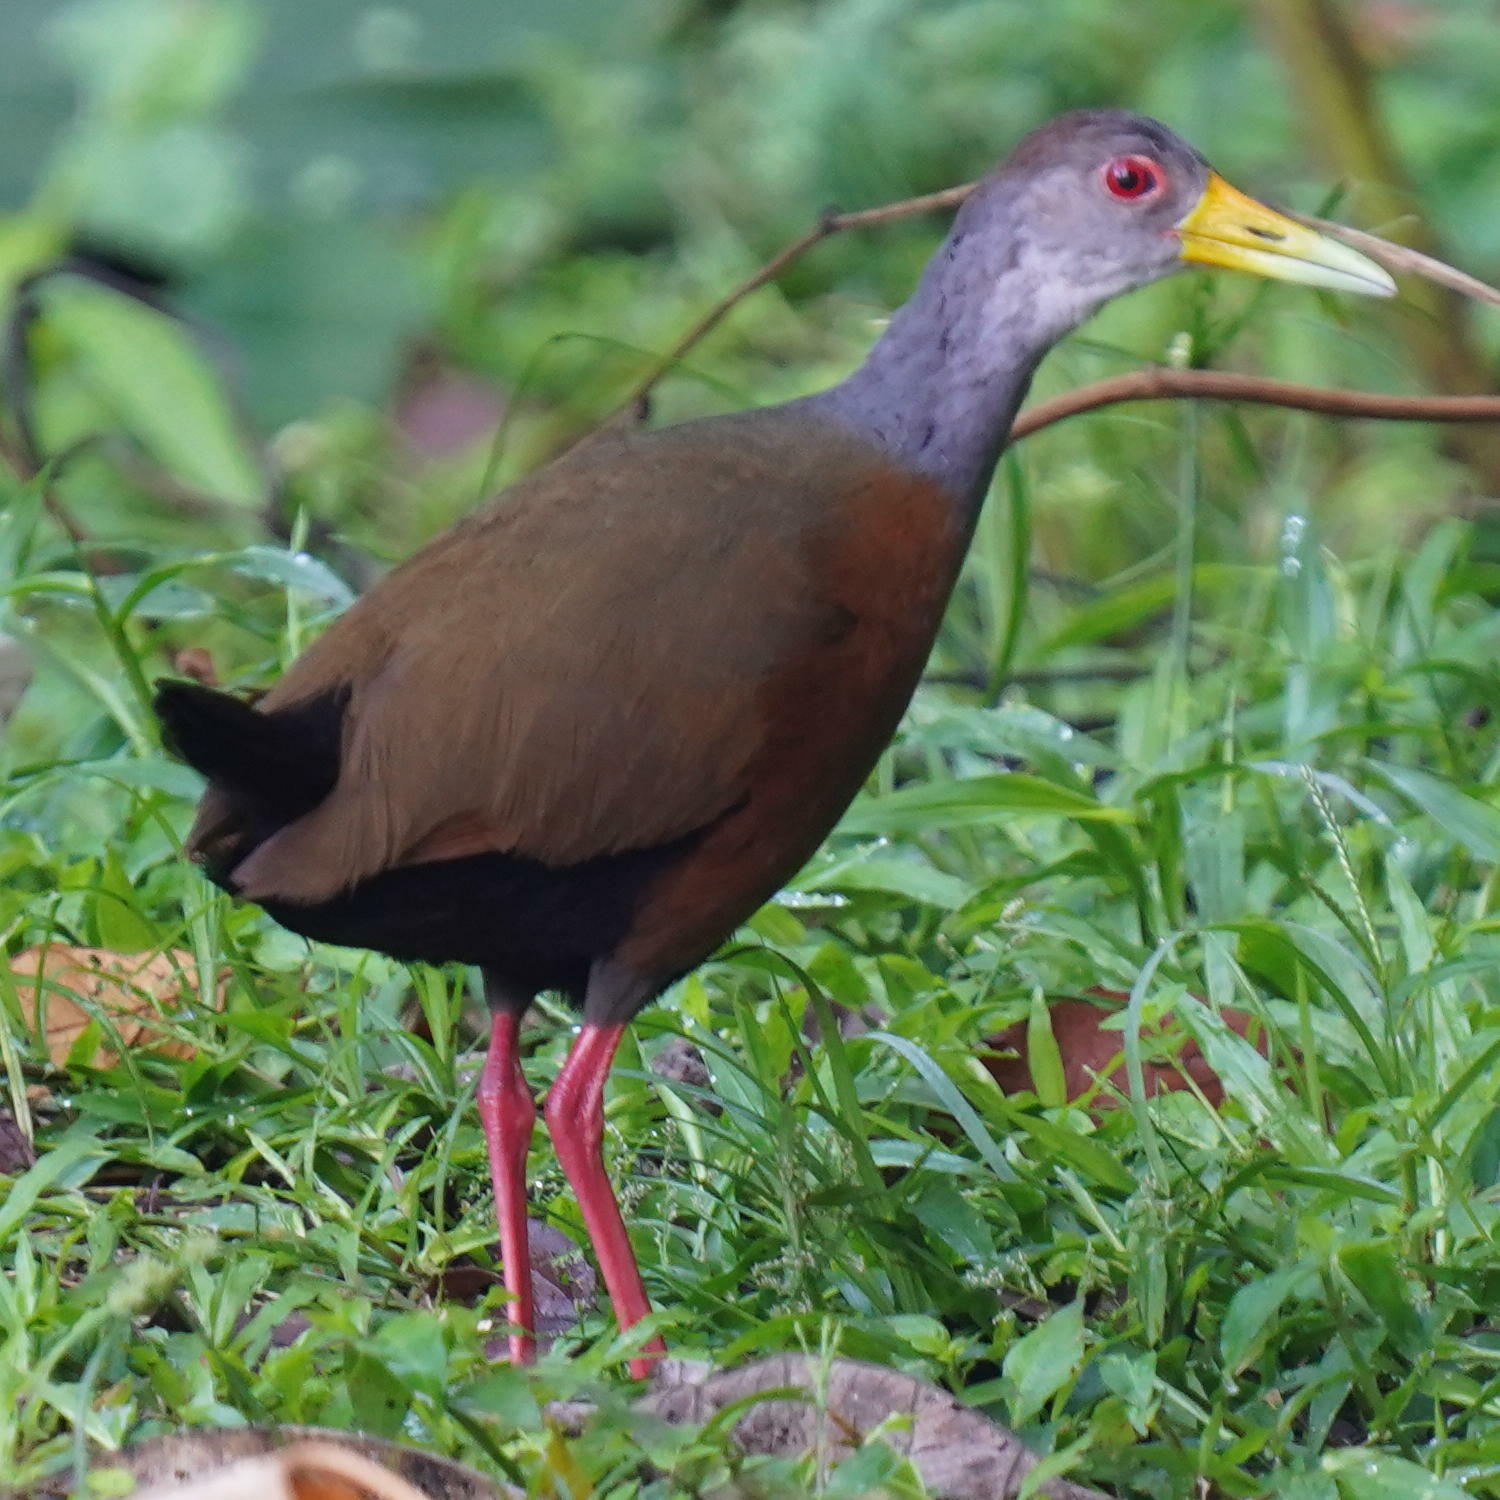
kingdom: Animalia
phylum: Chordata
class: Aves
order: Gruiformes
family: Rallidae
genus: Aramides
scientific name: Aramides cajanea
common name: Gray-necked wood-rail
